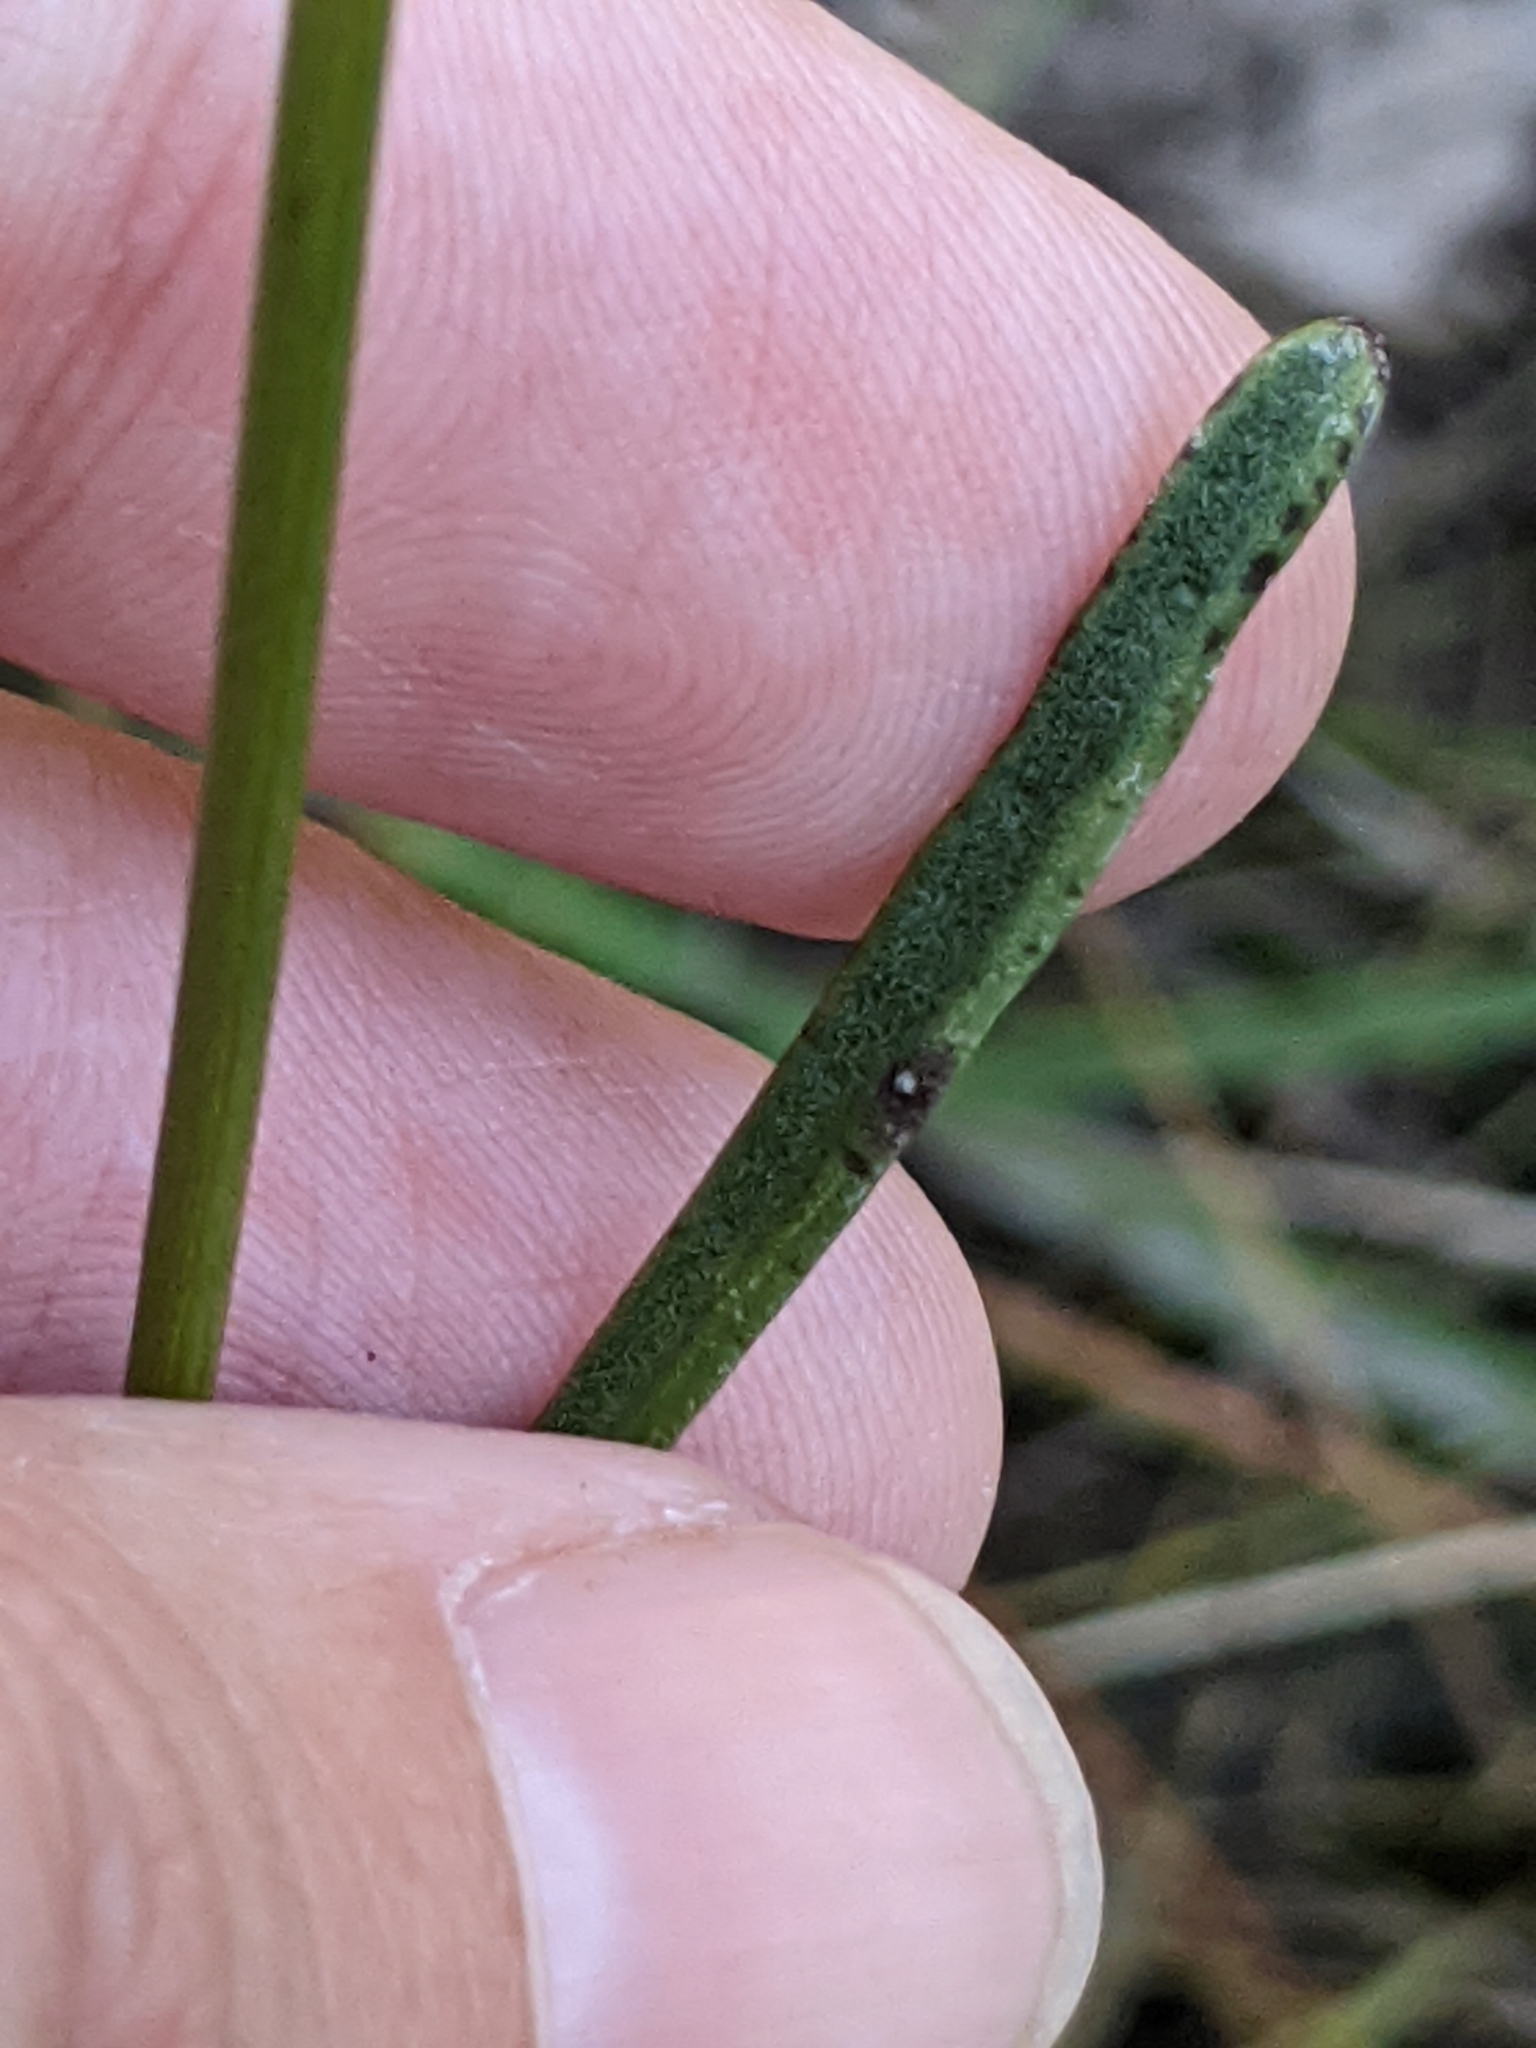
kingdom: Plantae
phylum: Tracheophyta
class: Magnoliopsida
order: Asterales
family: Asteraceae
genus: Coreopsis
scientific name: Coreopsis gladiata
